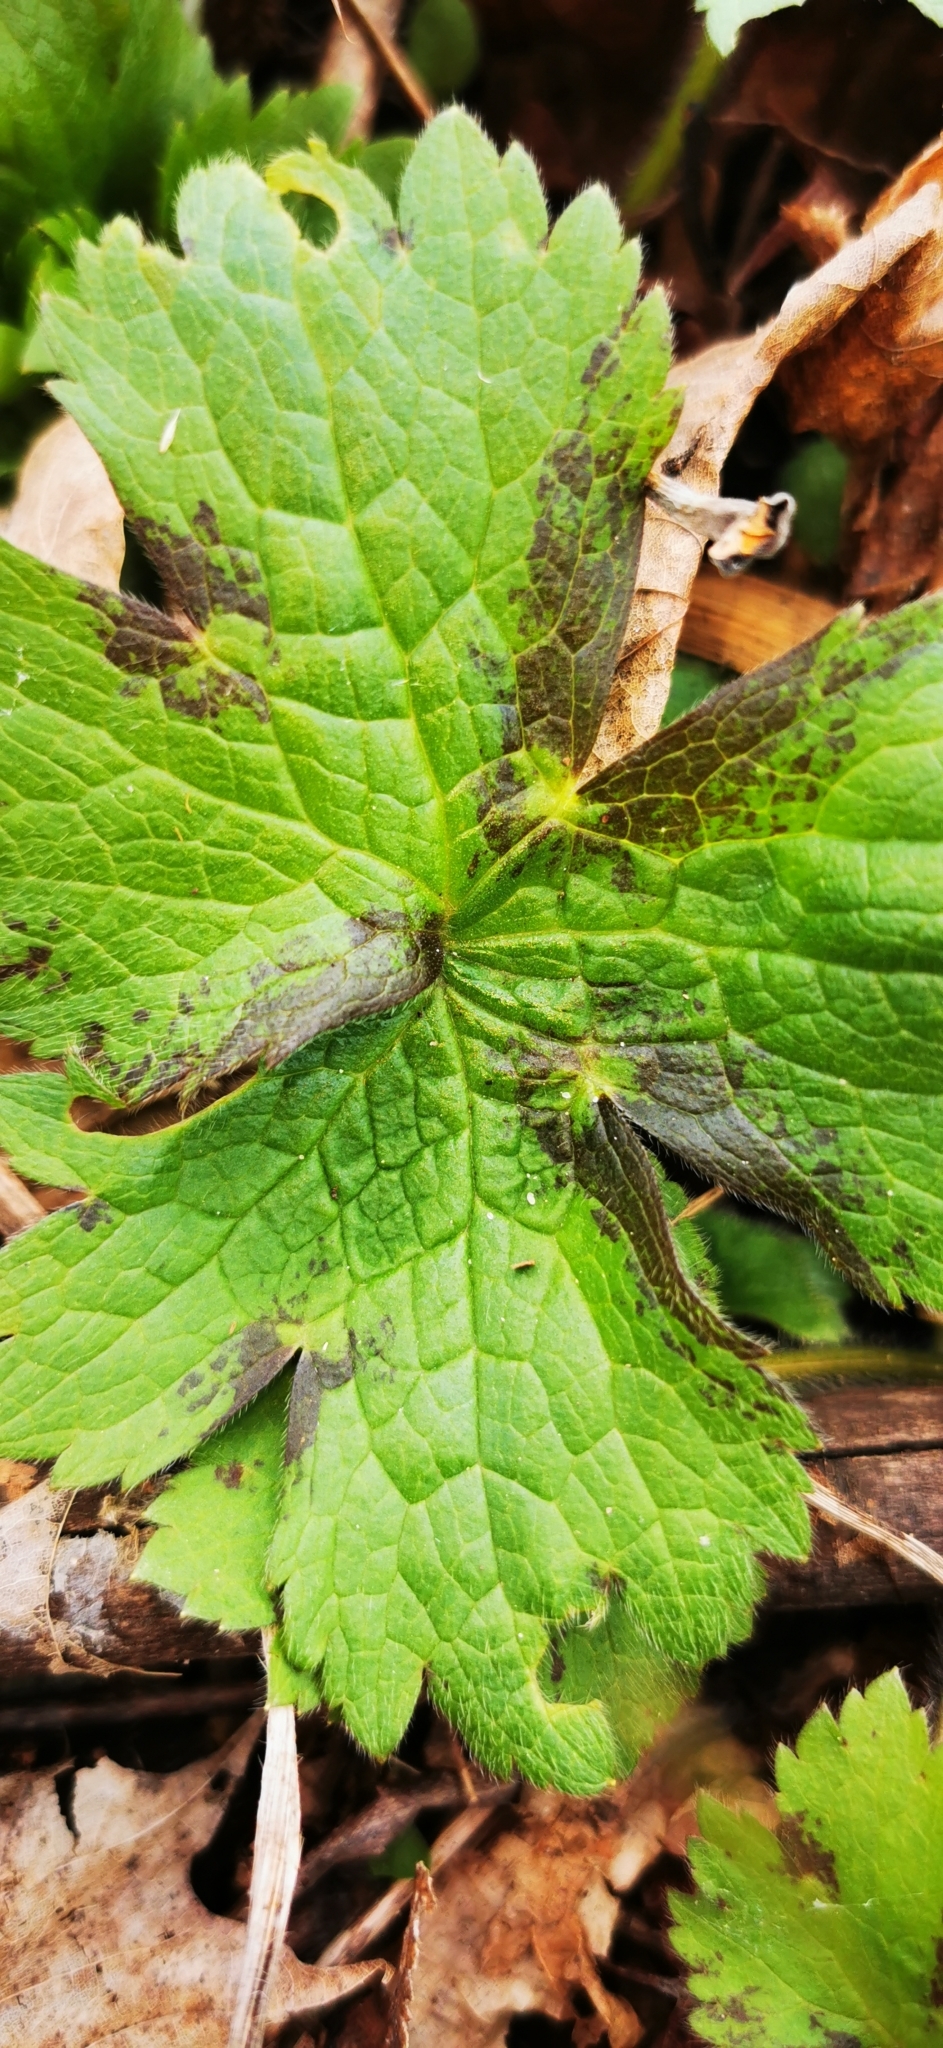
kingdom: Plantae
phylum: Tracheophyta
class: Magnoliopsida
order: Ranunculales
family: Ranunculaceae
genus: Ranunculus
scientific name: Ranunculus lanuginosus
